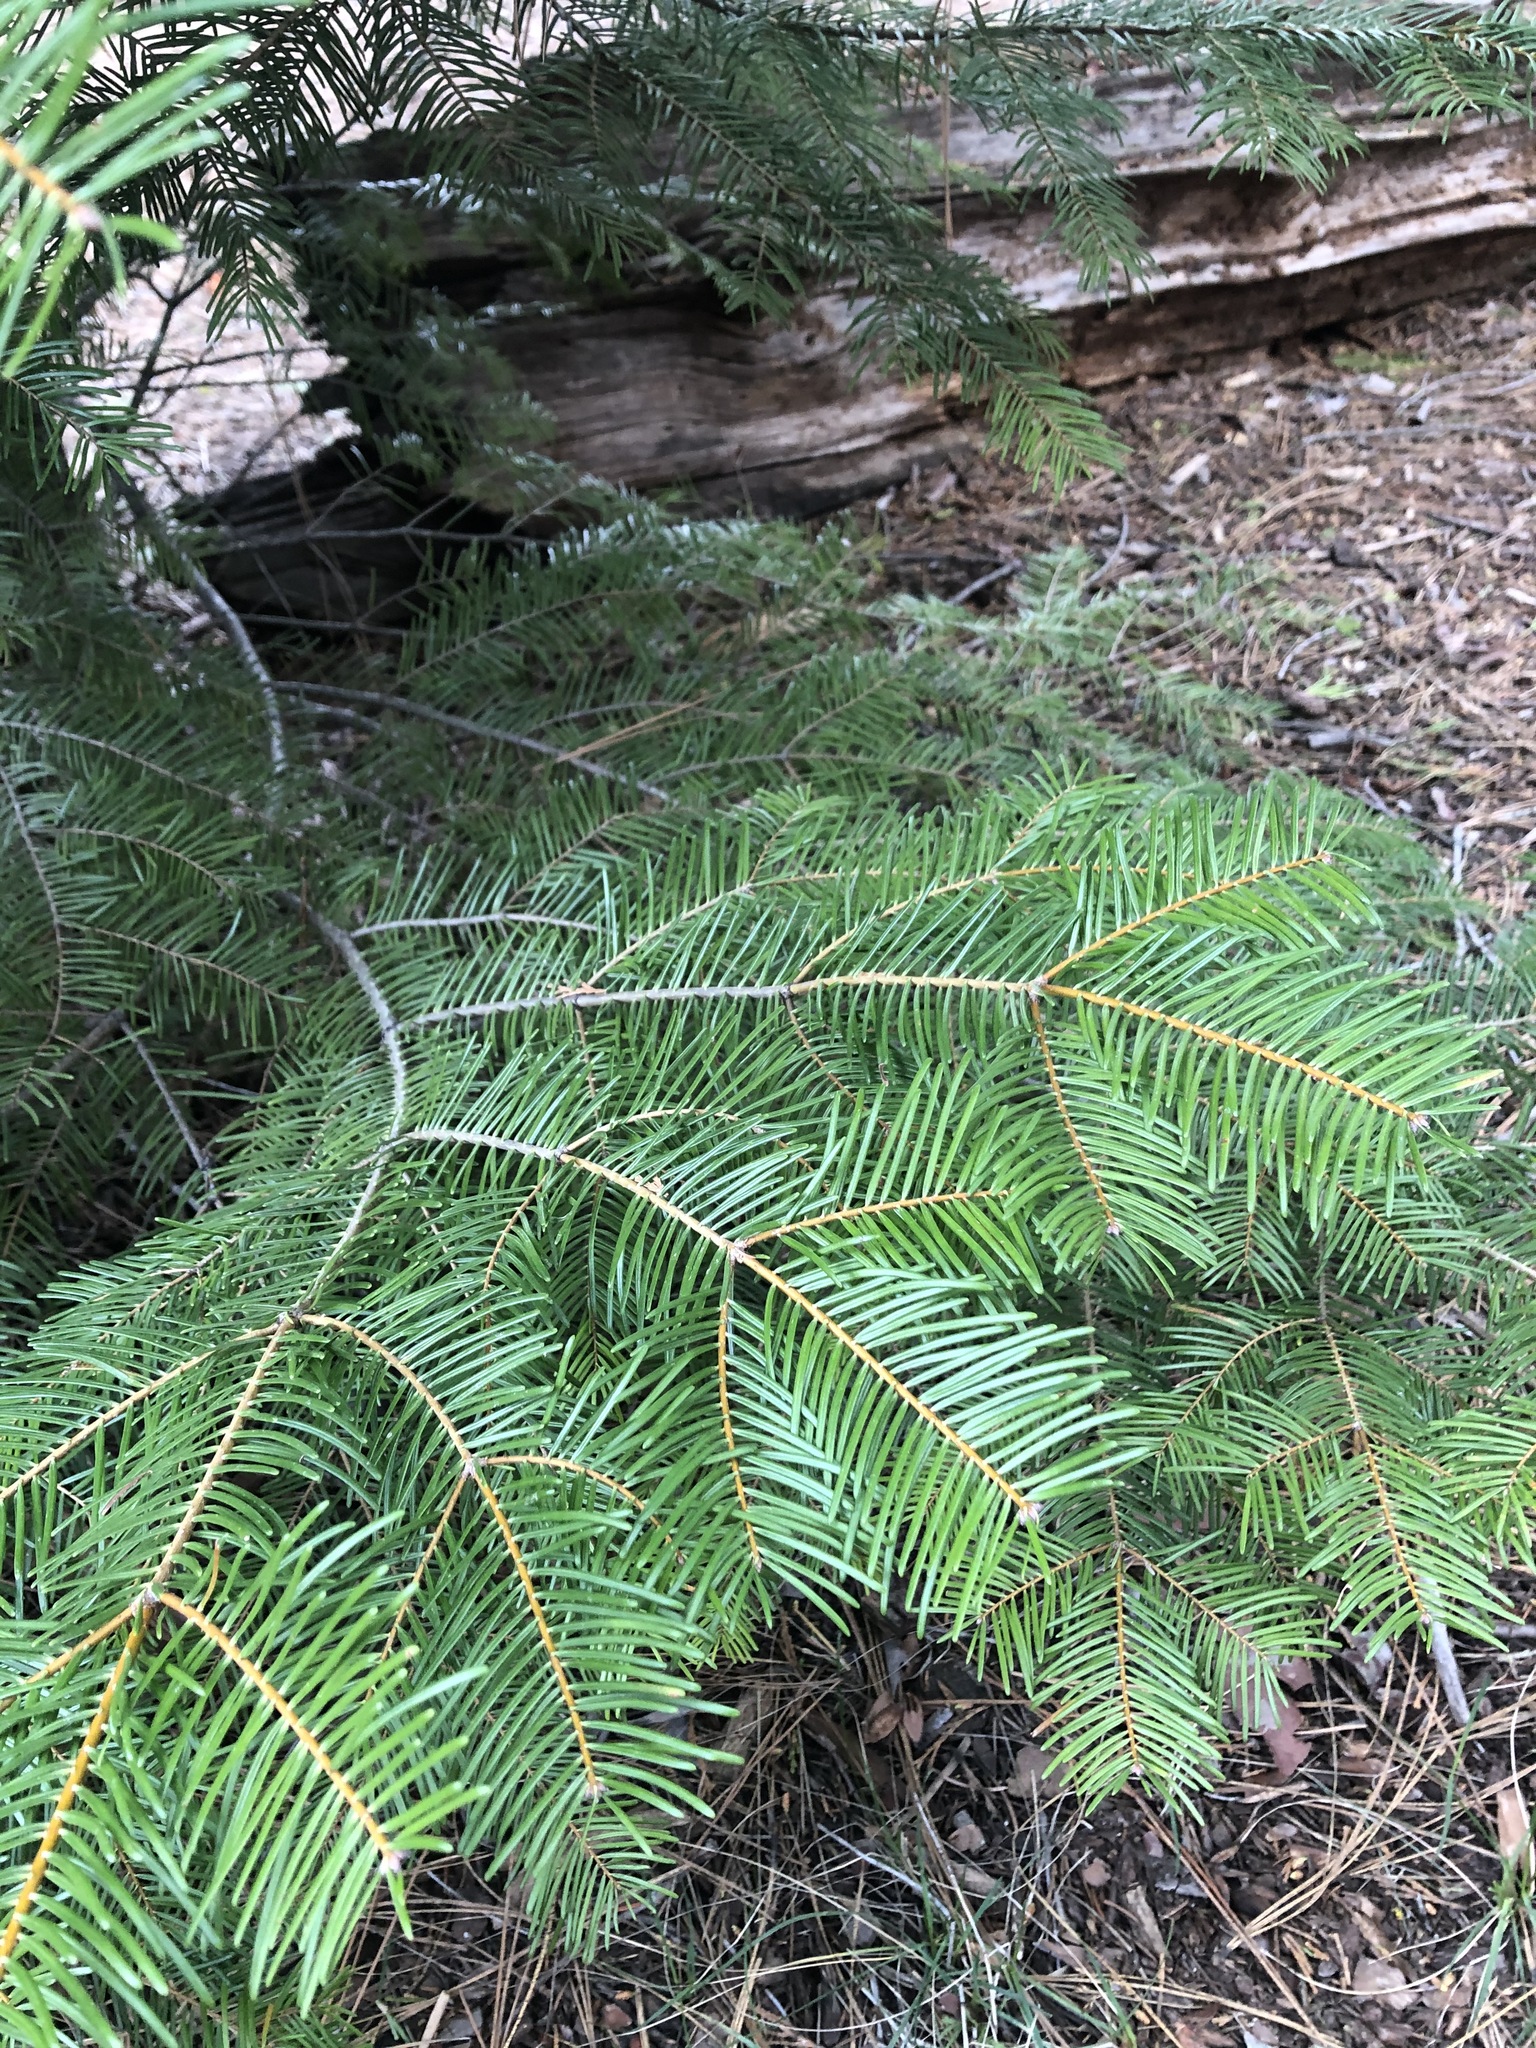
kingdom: Plantae
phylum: Tracheophyta
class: Pinopsida
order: Pinales
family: Pinaceae
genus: Abies
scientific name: Abies concolor
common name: Colorado fir
